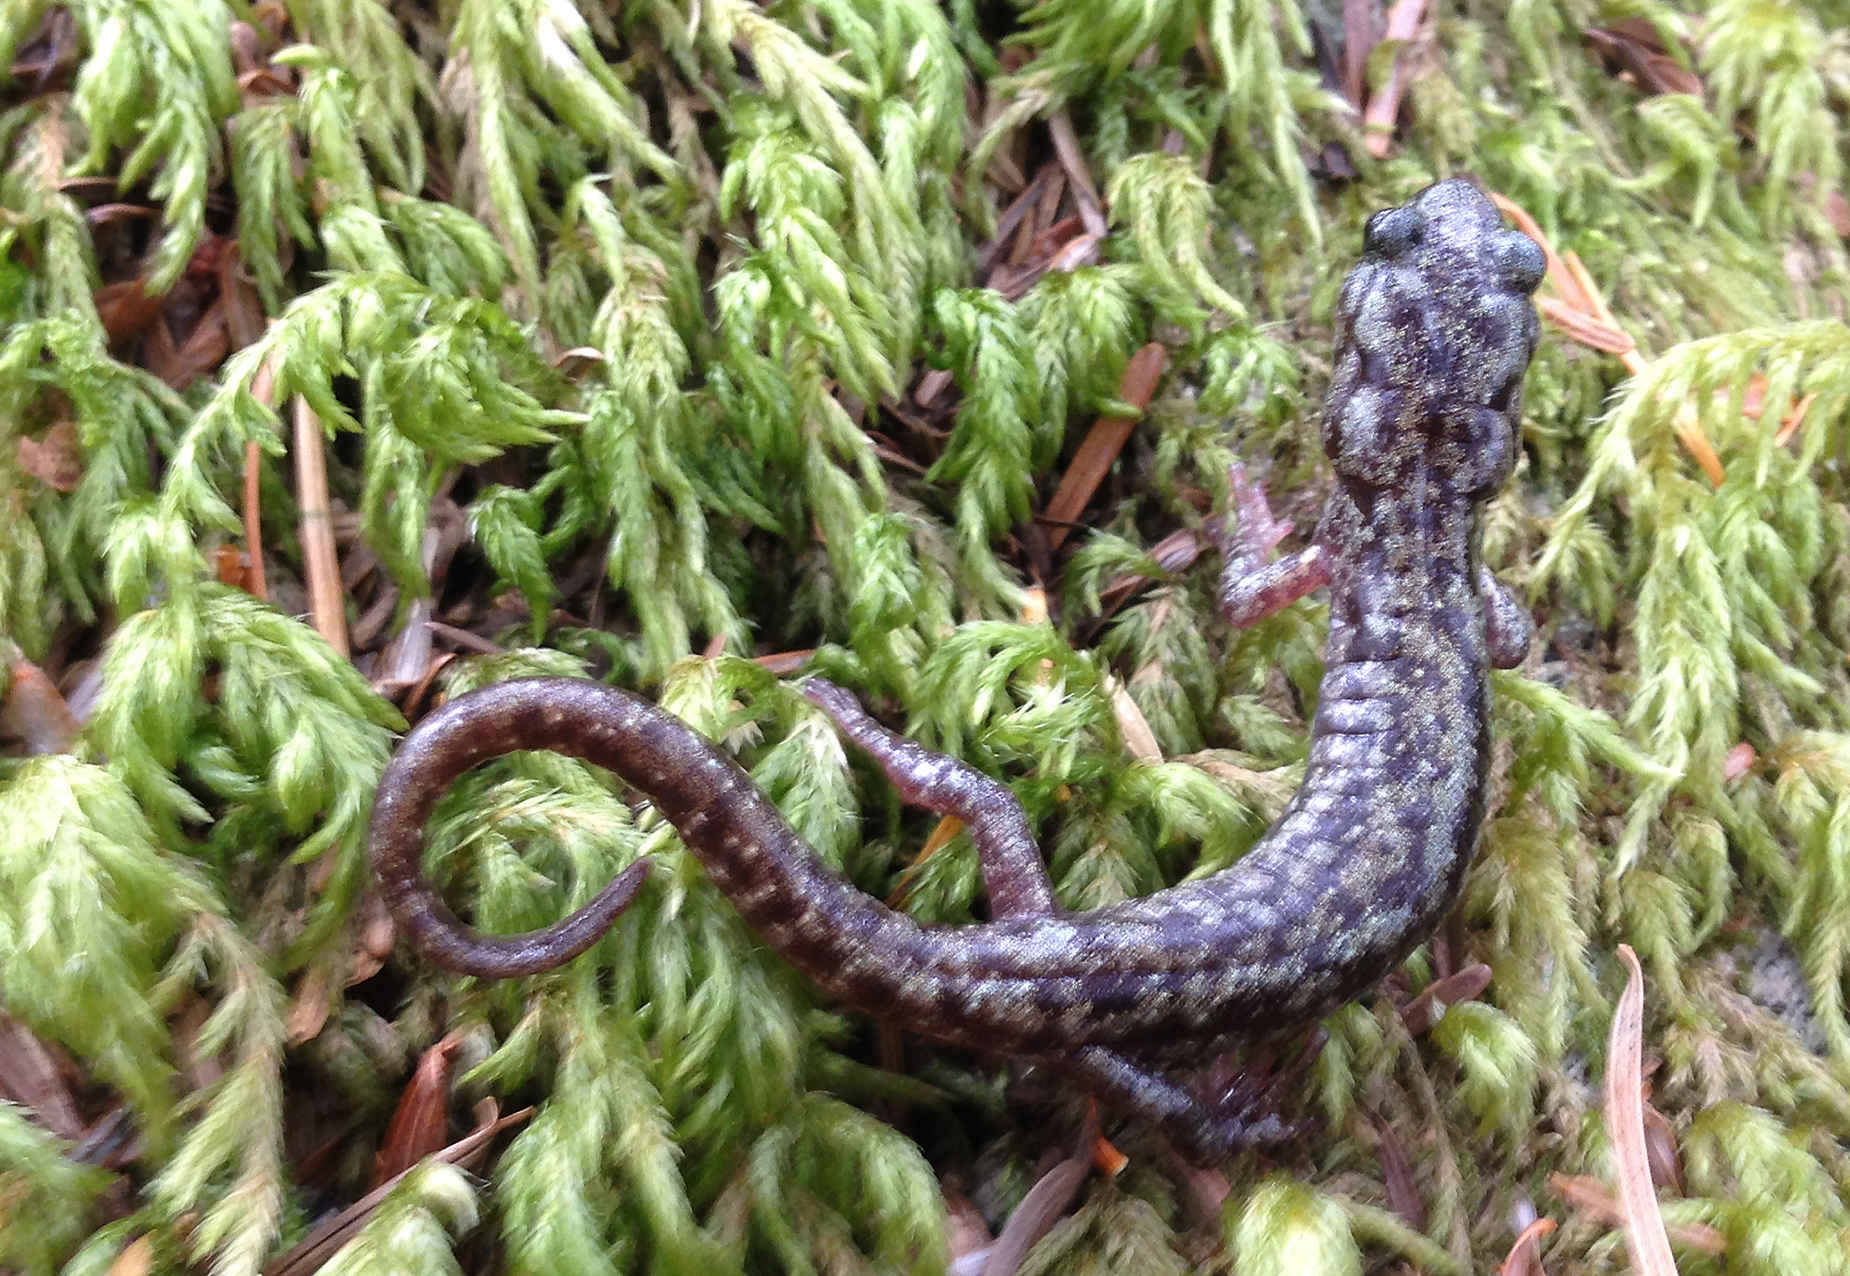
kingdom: Animalia
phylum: Chordata
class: Amphibia
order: Caudata
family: Plethodontidae
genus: Aneides
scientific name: Aneides vagrans
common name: Wandering salamander
